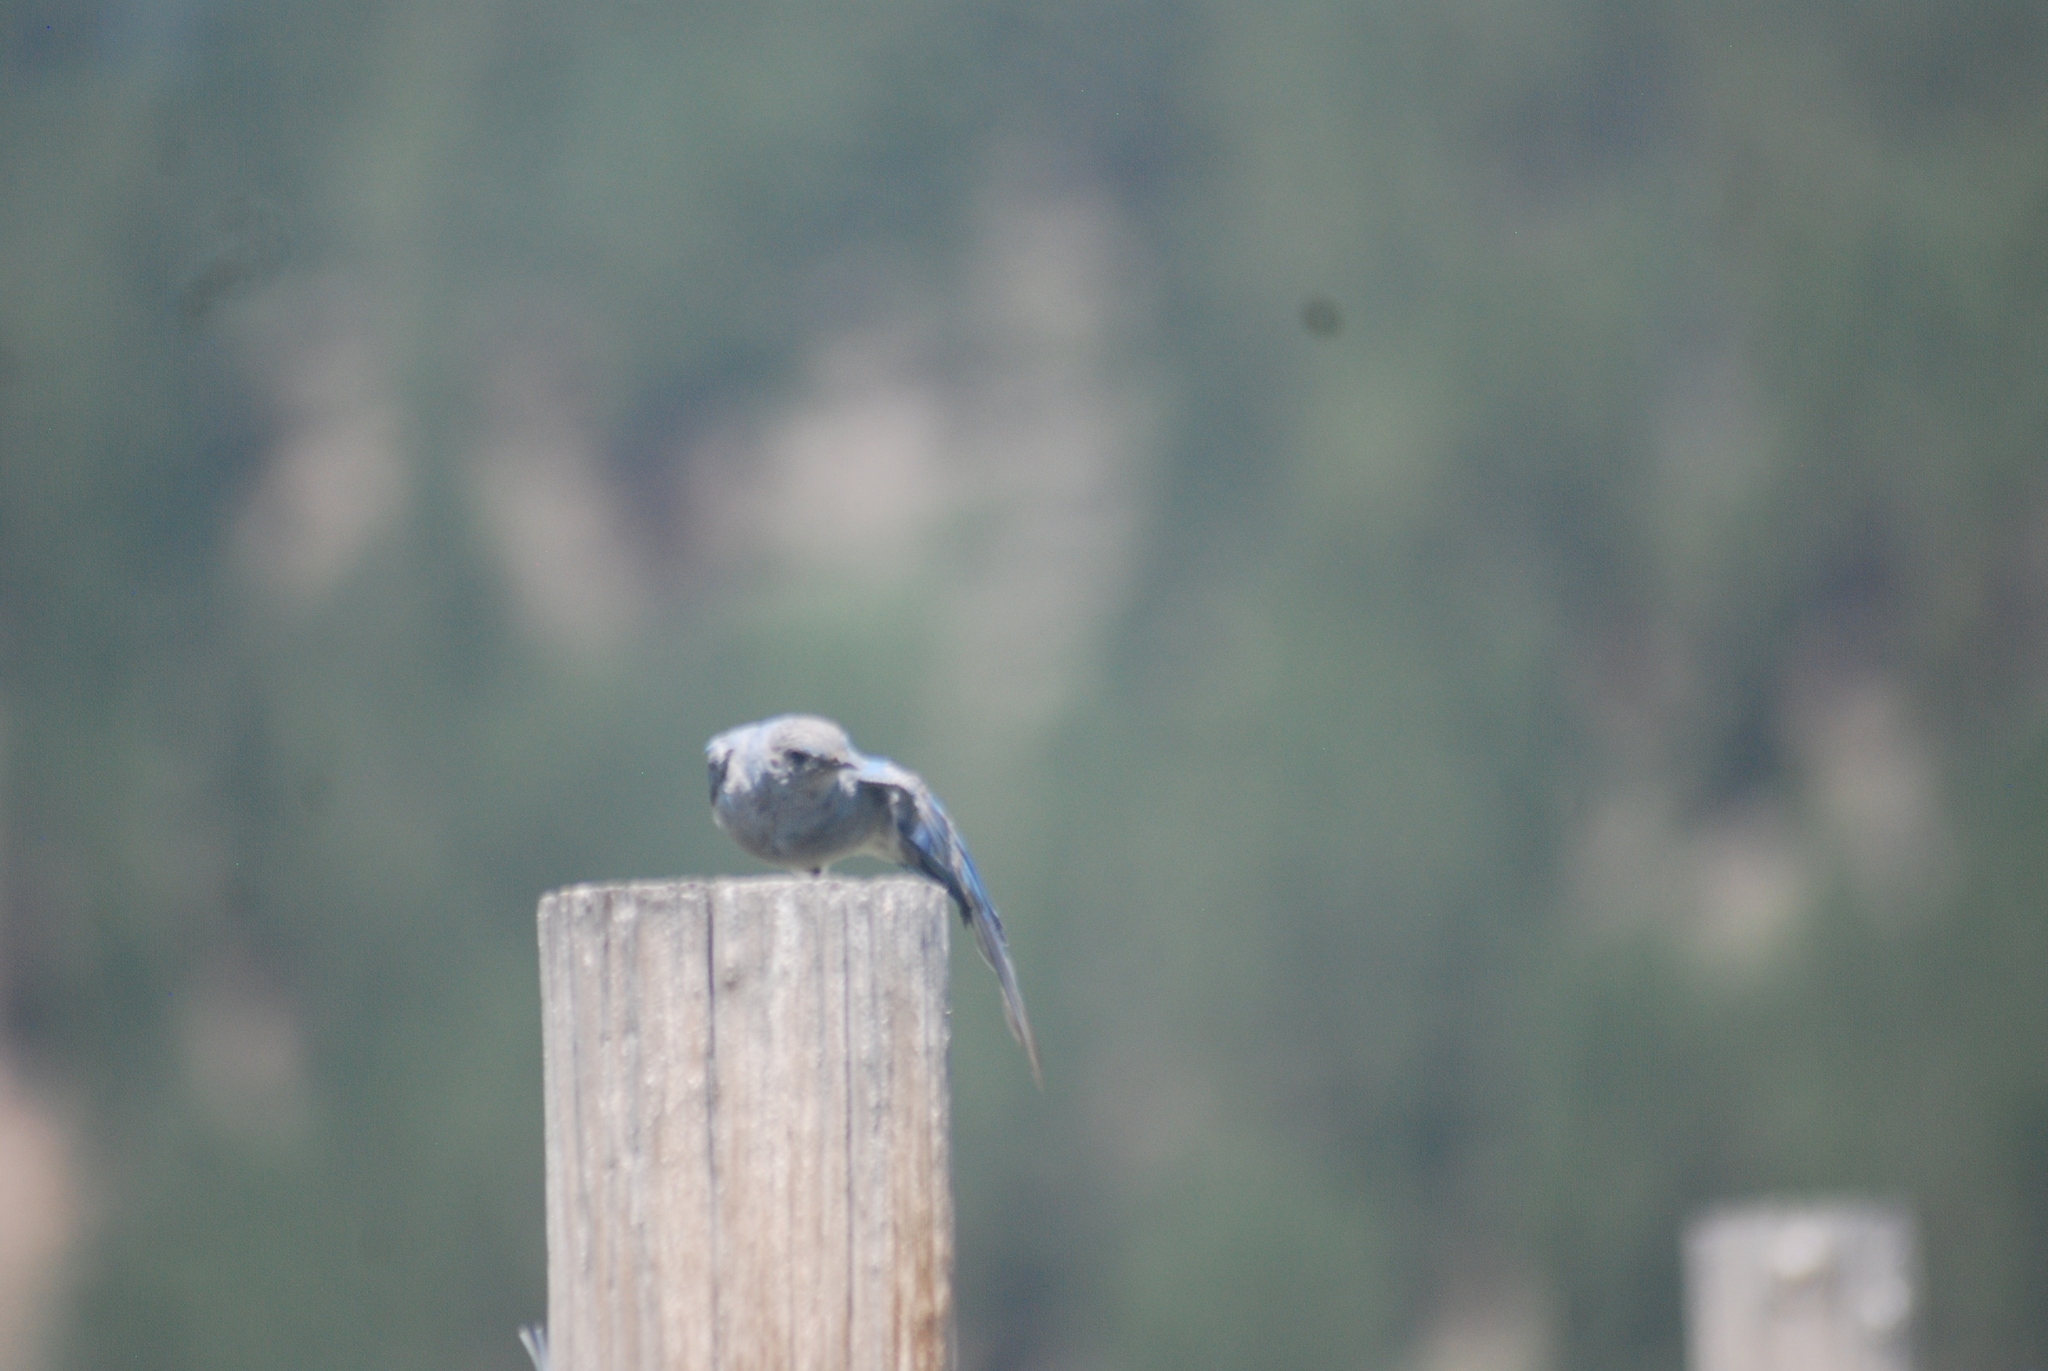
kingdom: Animalia
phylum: Chordata
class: Aves
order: Passeriformes
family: Turdidae
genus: Sialia
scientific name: Sialia currucoides
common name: Mountain bluebird
